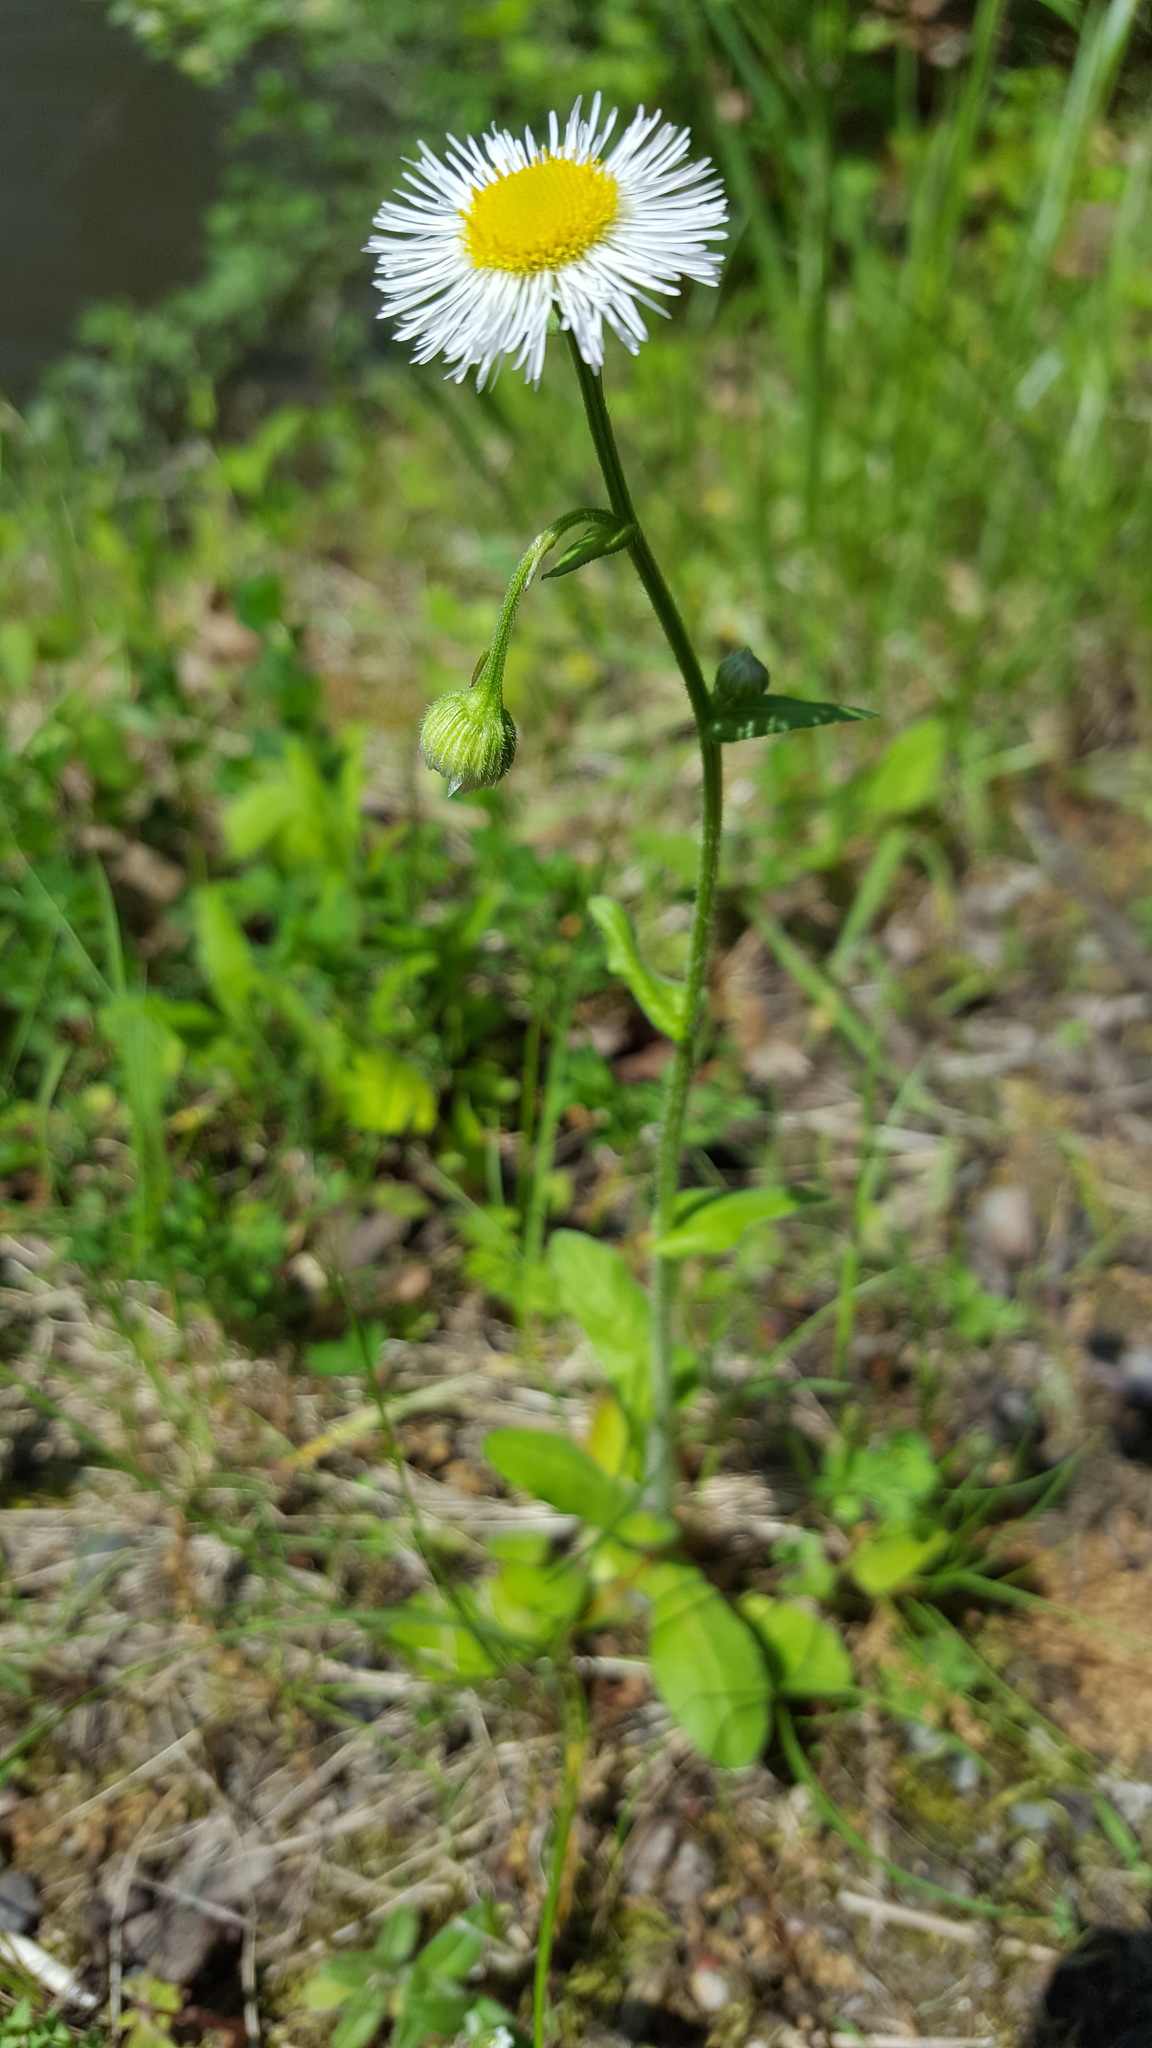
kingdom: Plantae
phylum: Tracheophyta
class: Magnoliopsida
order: Asterales
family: Asteraceae
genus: Erigeron
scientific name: Erigeron pulchellus
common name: Hairy fleabane
